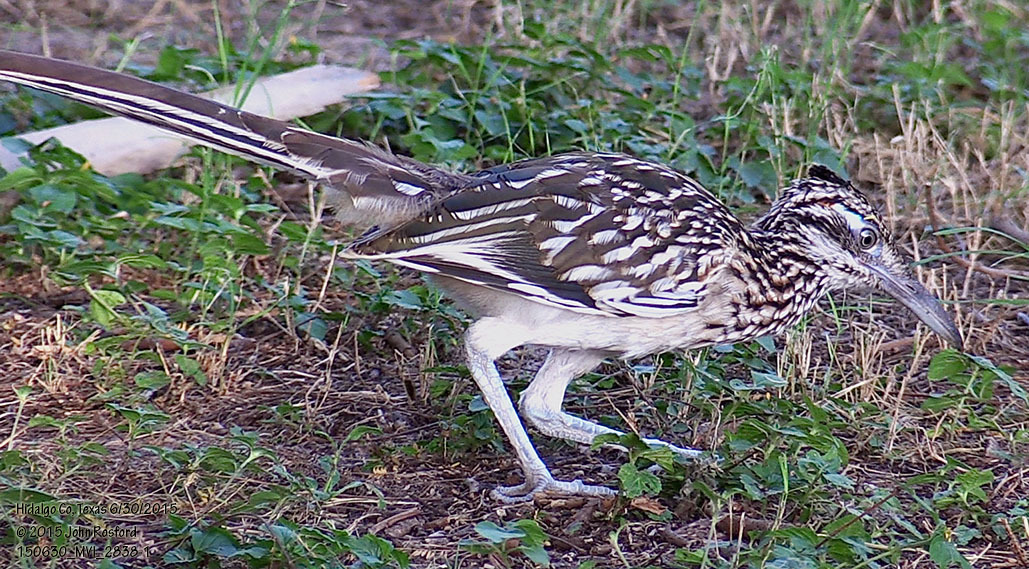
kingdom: Animalia
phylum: Chordata
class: Aves
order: Cuculiformes
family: Cuculidae
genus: Geococcyx
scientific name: Geococcyx californianus
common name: Greater roadrunner
